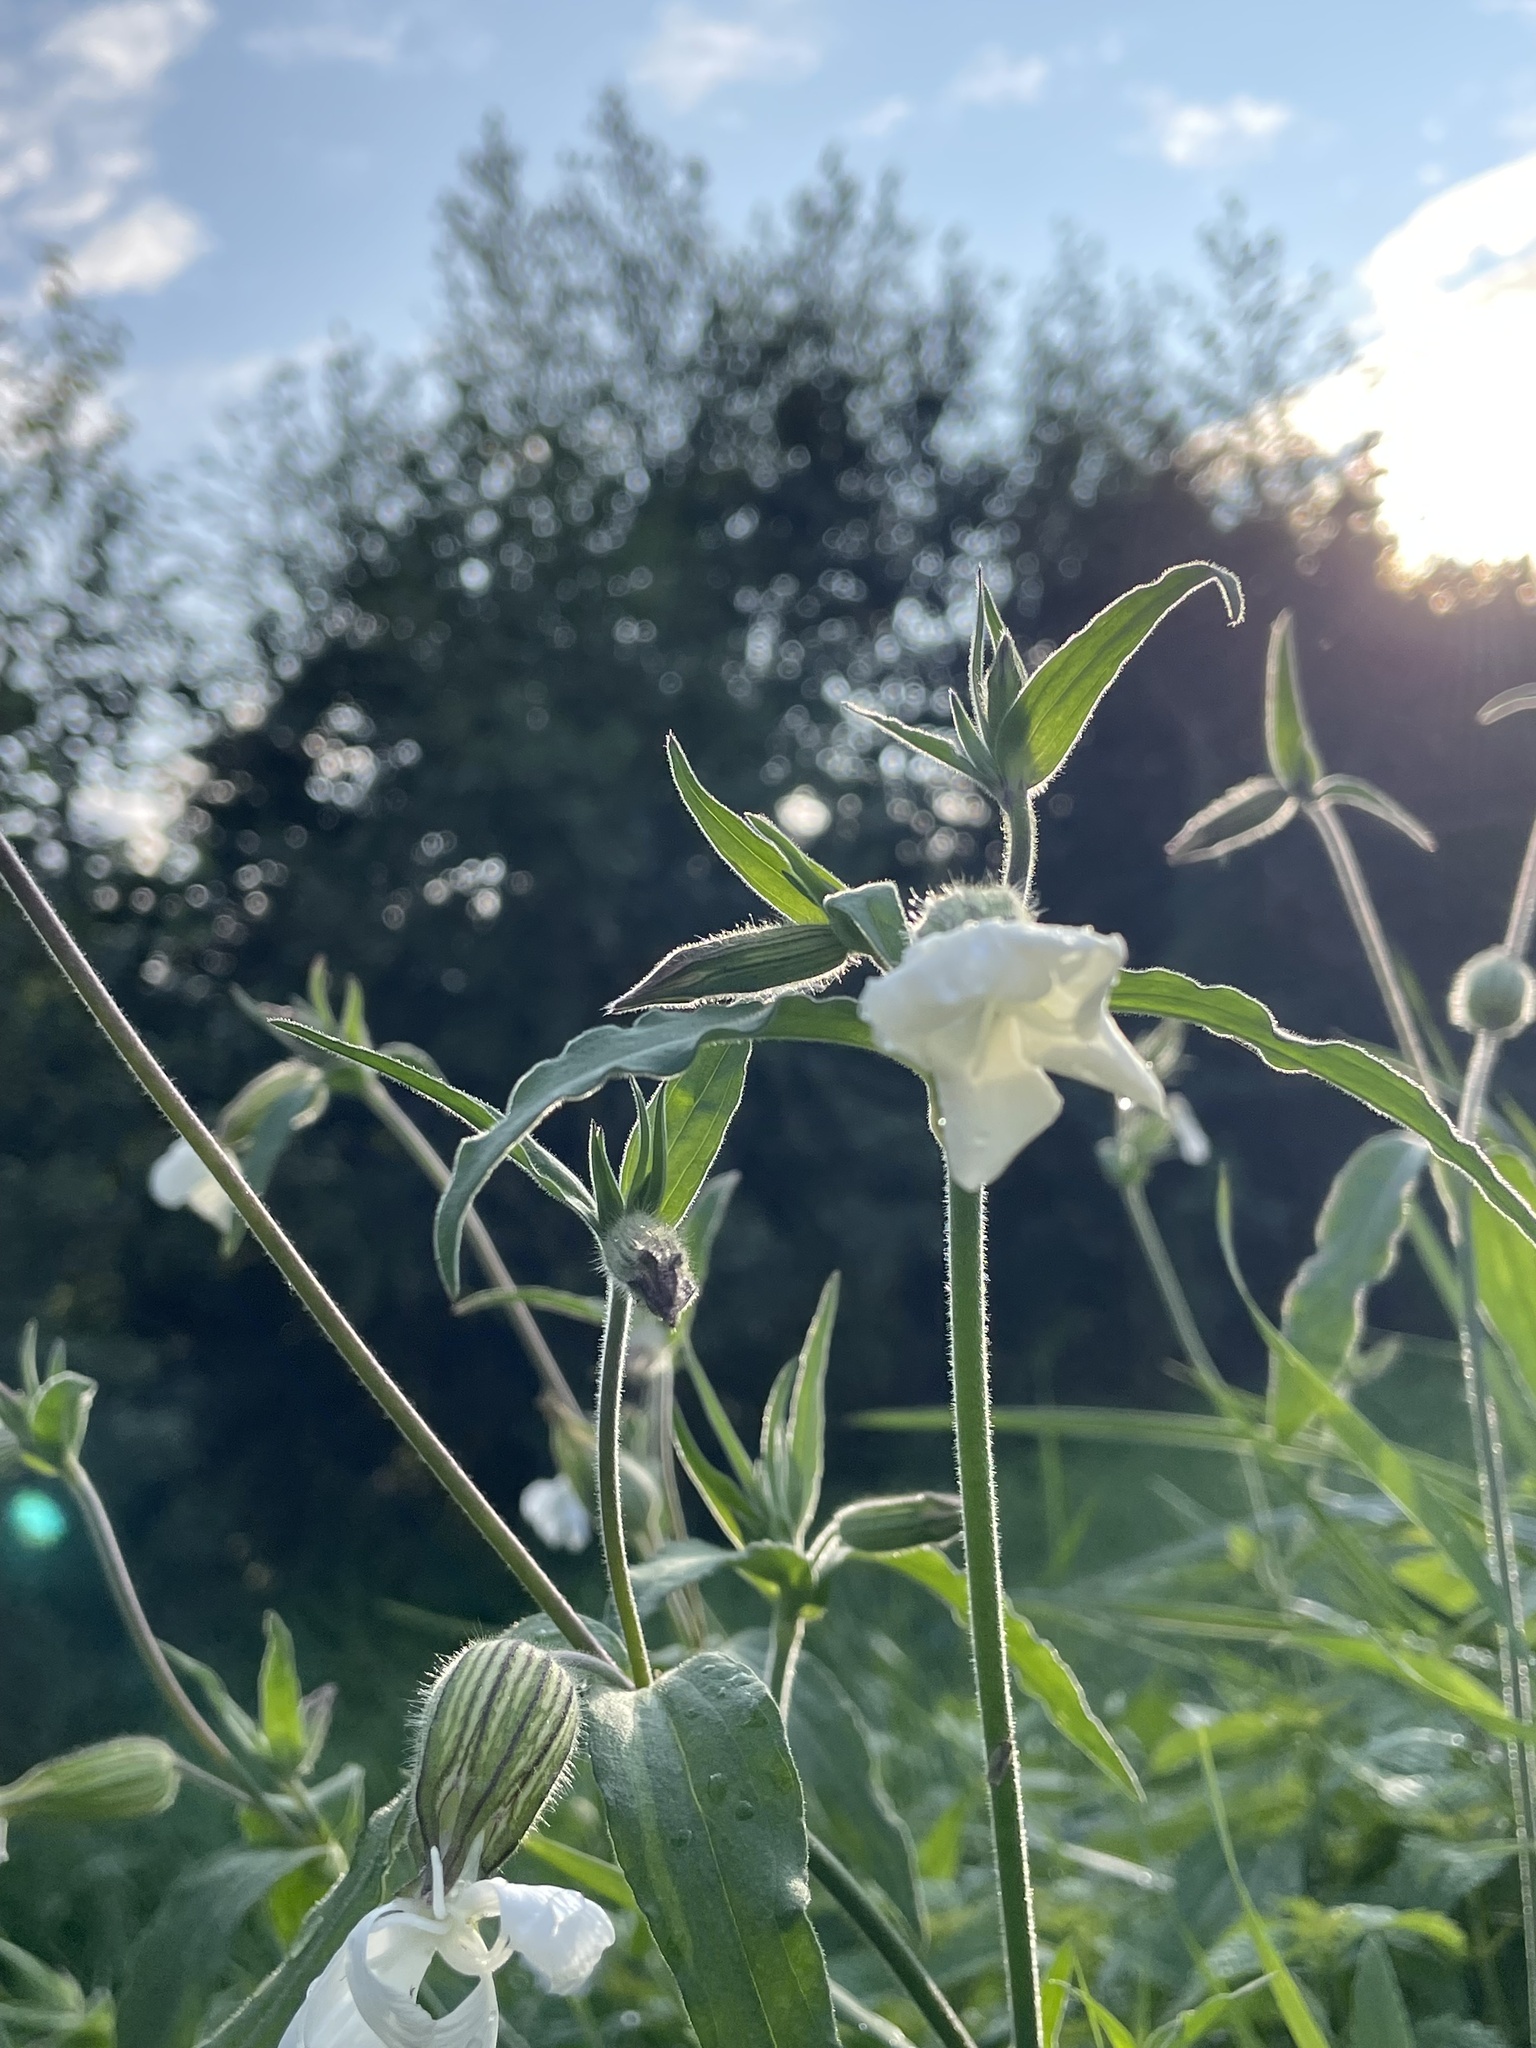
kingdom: Plantae
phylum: Tracheophyta
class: Magnoliopsida
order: Caryophyllales
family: Caryophyllaceae
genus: Silene
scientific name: Silene latifolia
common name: White campion
